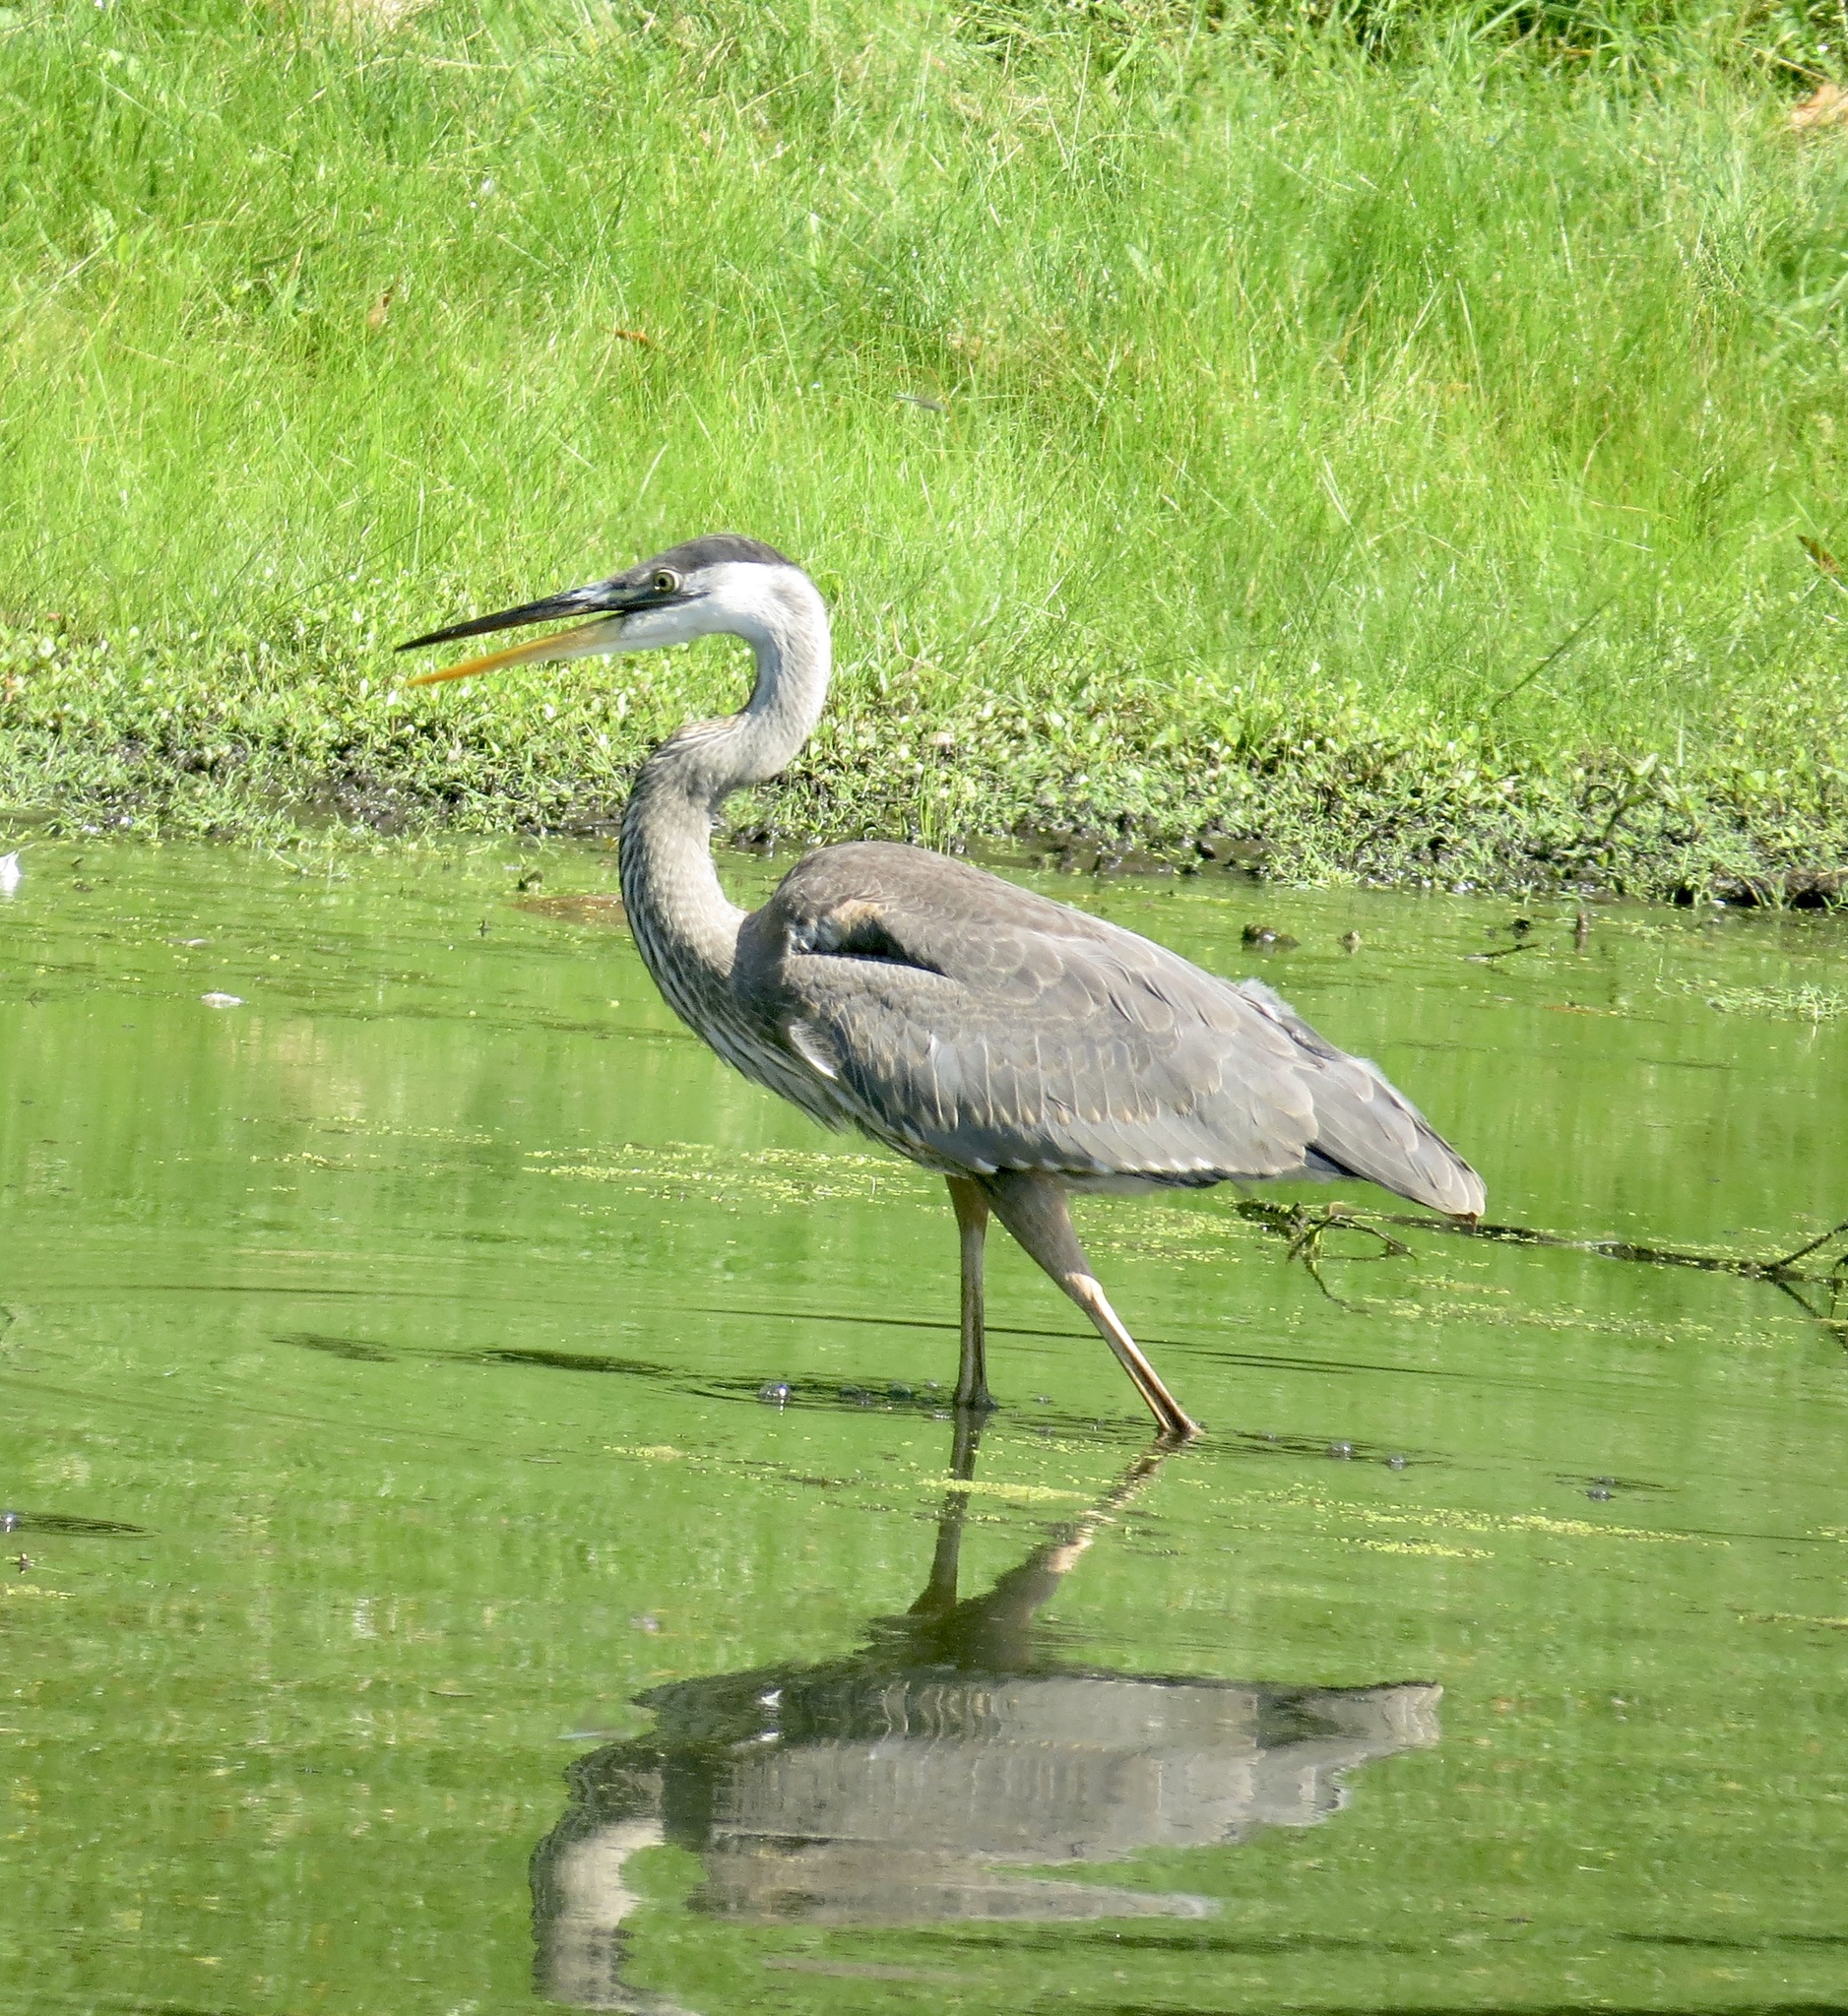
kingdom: Animalia
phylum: Chordata
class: Aves
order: Pelecaniformes
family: Ardeidae
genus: Ardea
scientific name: Ardea herodias
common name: Great blue heron
